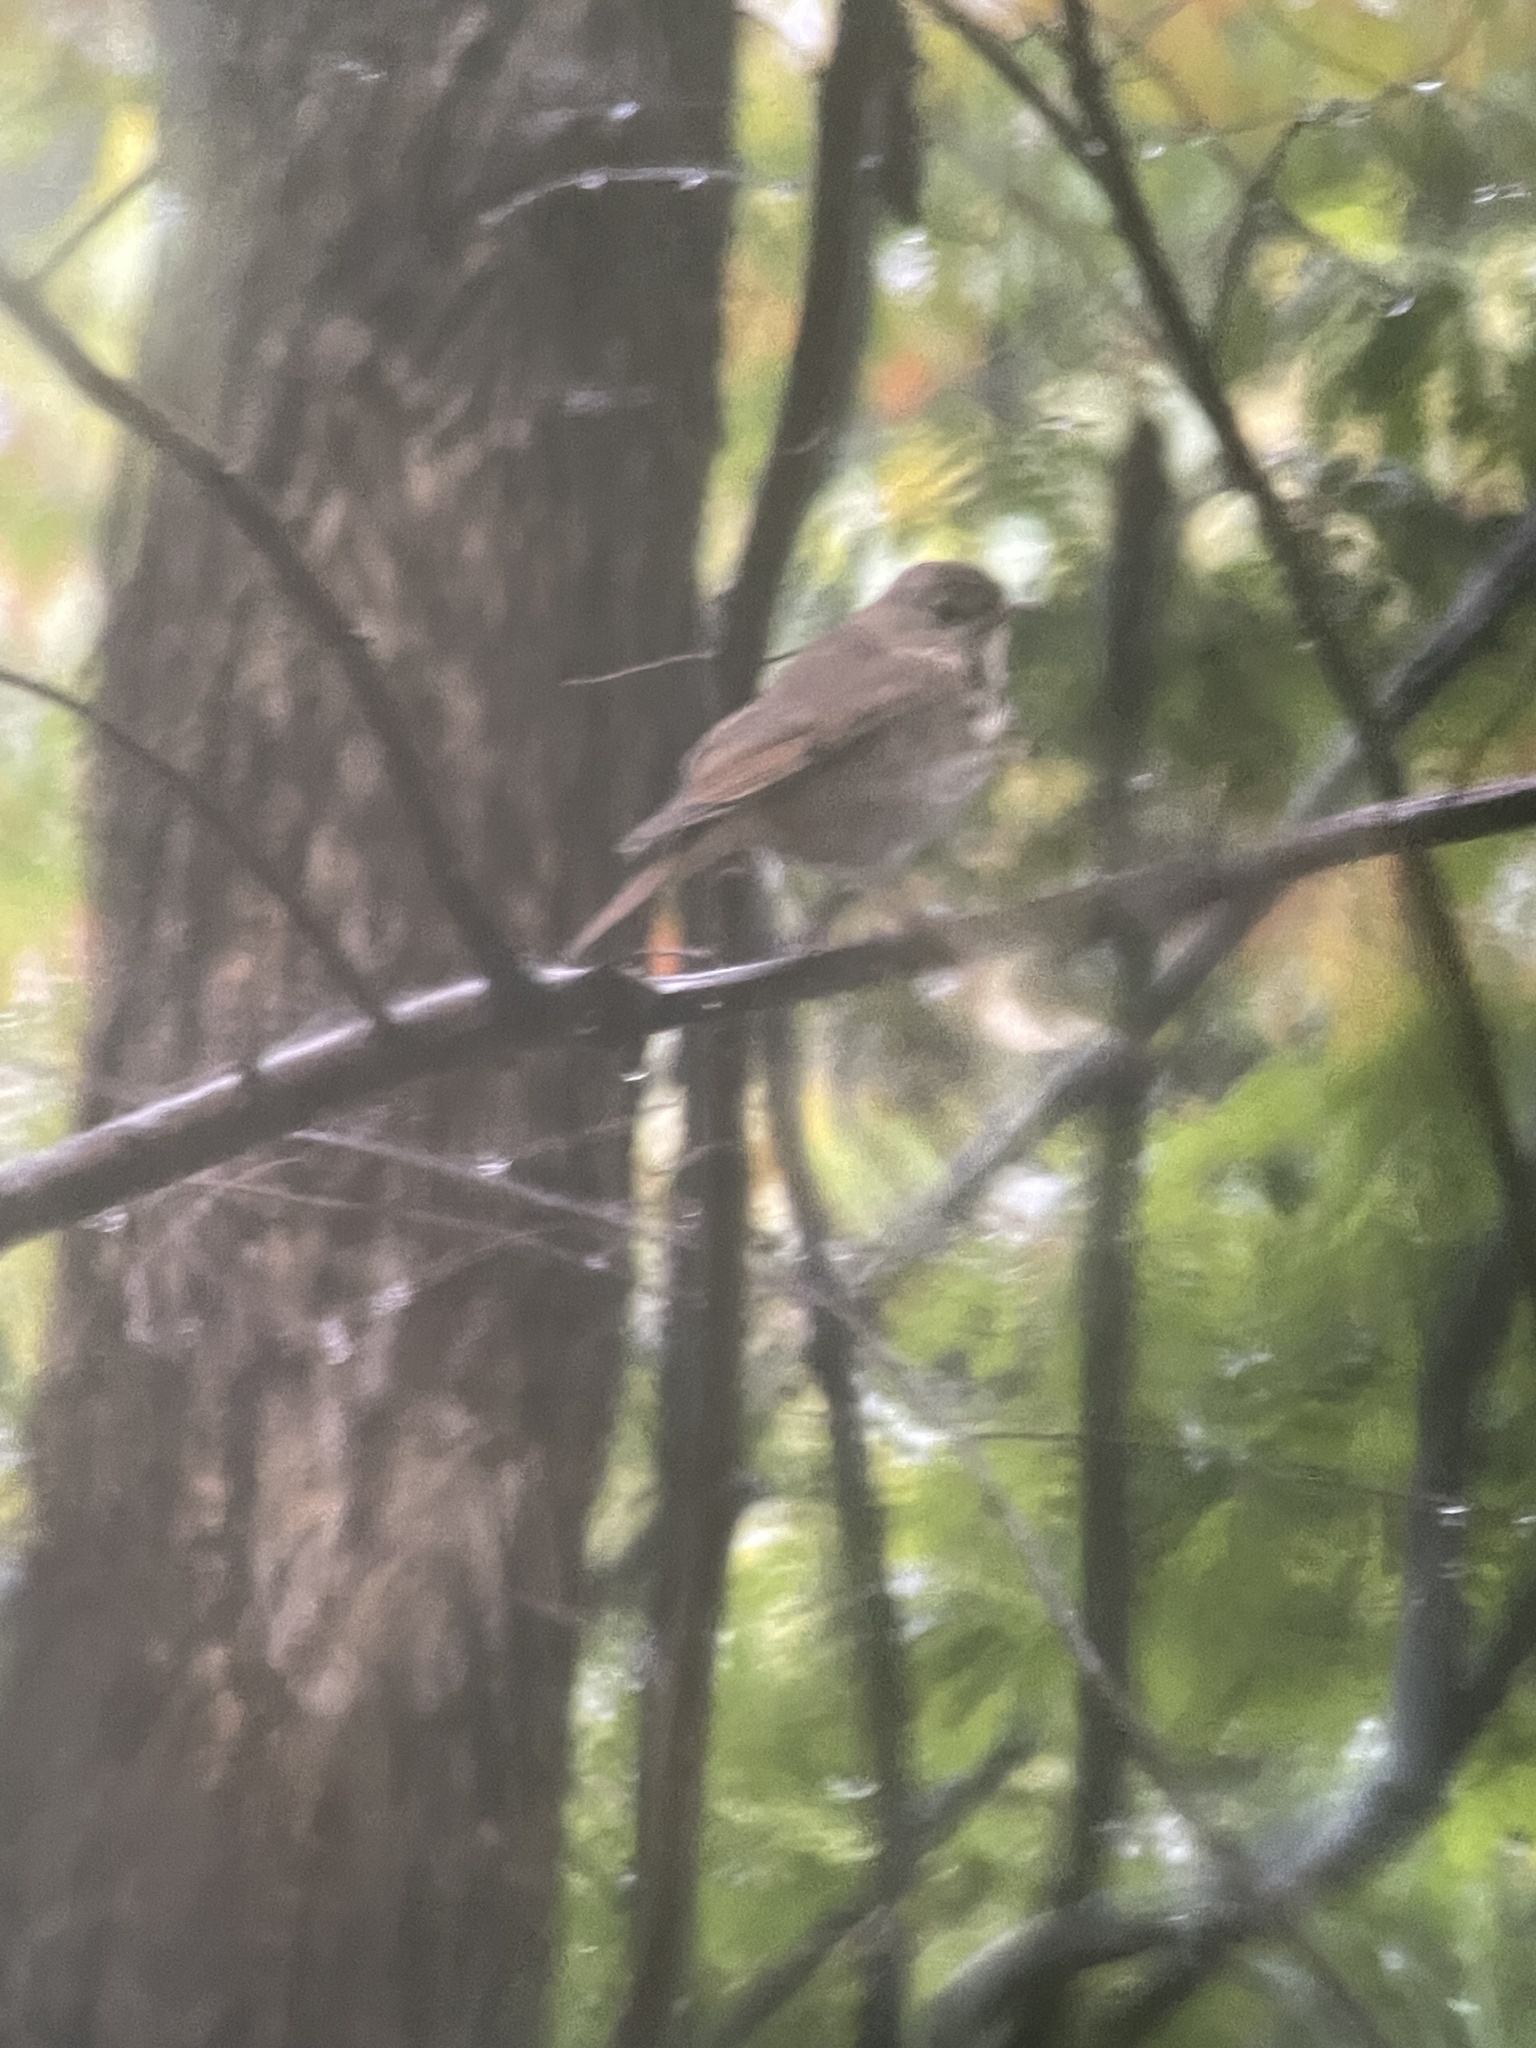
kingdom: Animalia
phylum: Chordata
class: Aves
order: Passeriformes
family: Turdidae
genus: Catharus
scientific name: Catharus guttatus
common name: Hermit thrush
